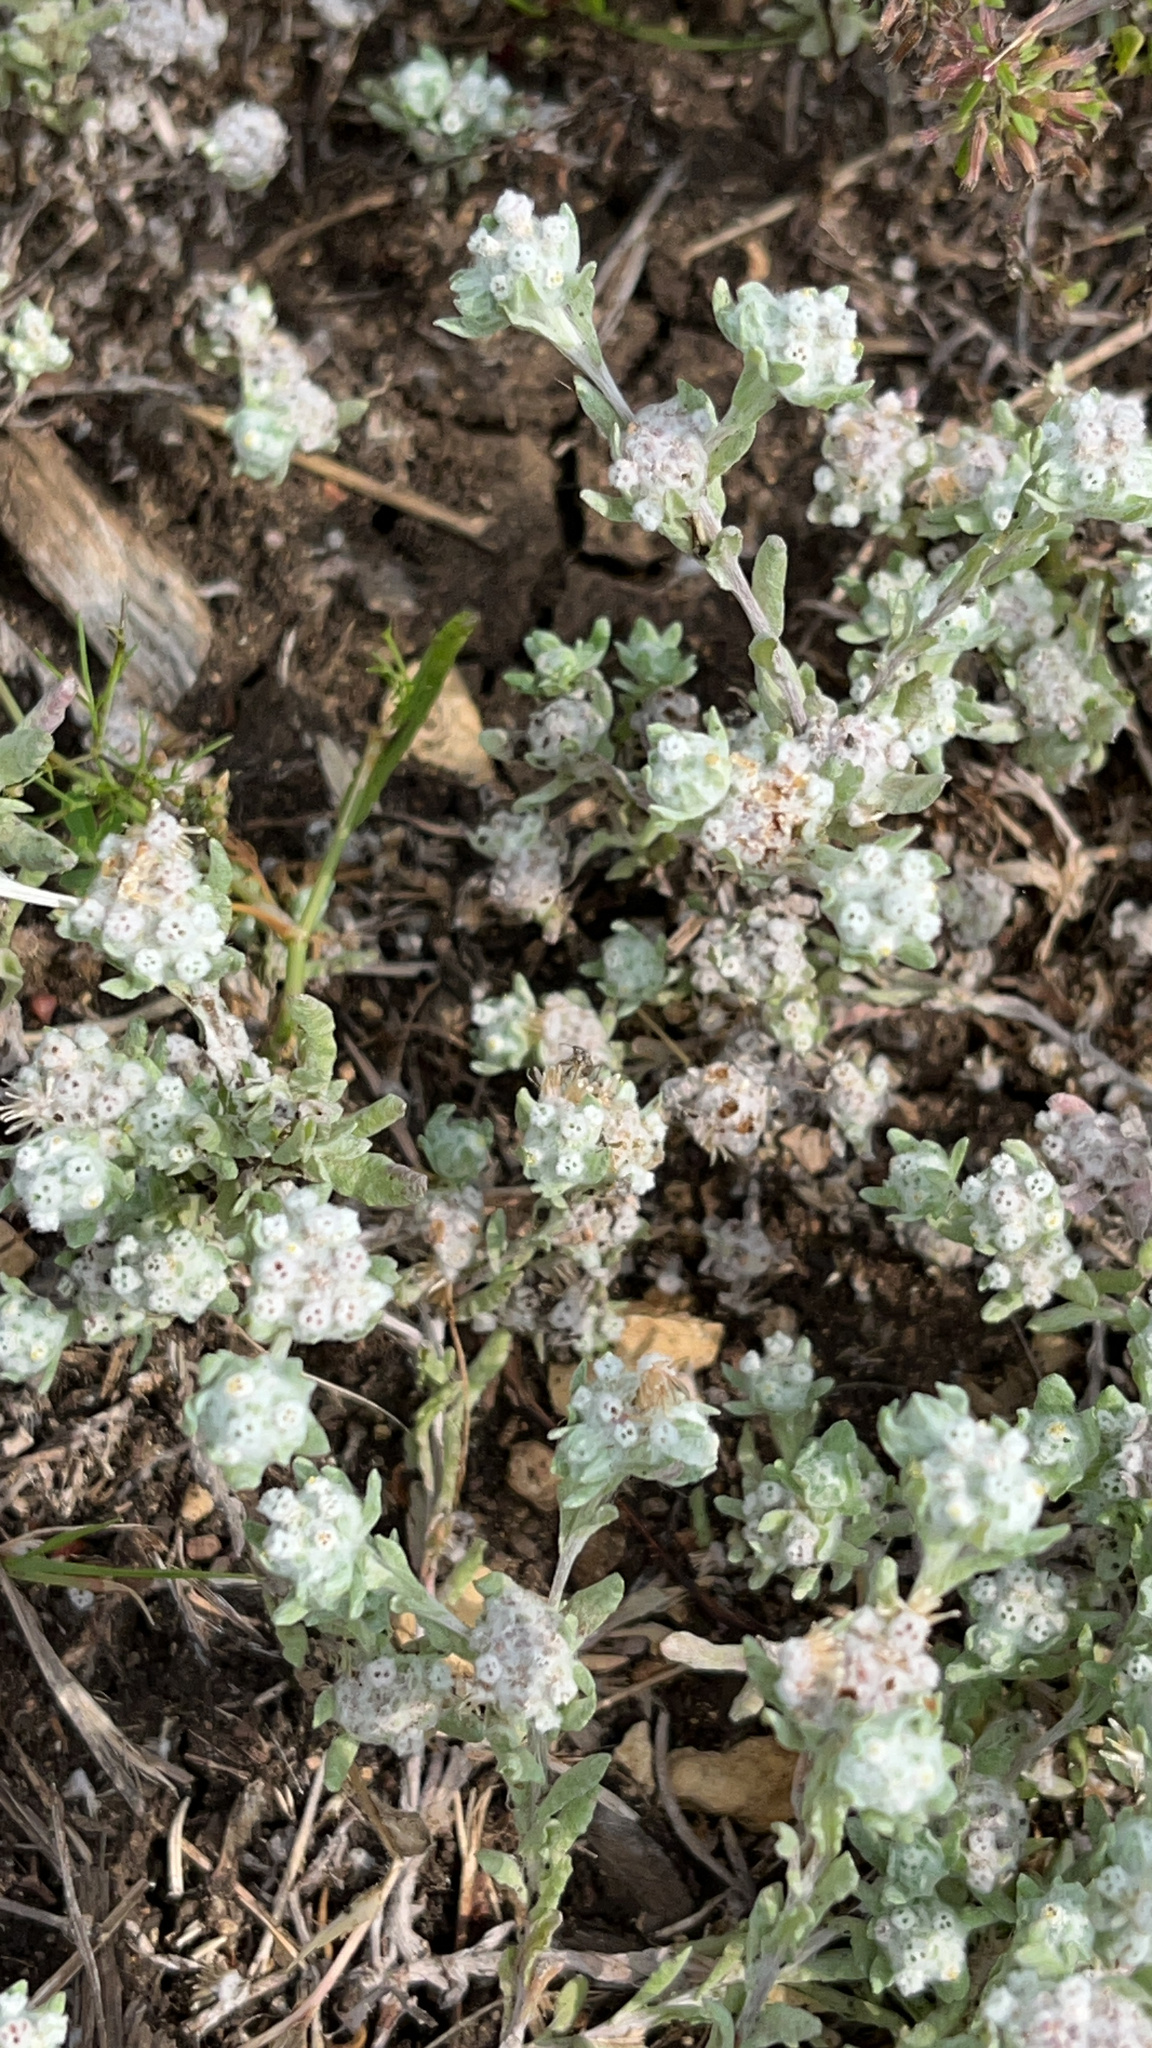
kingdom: Plantae
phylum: Tracheophyta
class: Magnoliopsida
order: Asterales
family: Asteraceae
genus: Diaperia
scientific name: Diaperia verna
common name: Many-stem rabbit-tobacco
